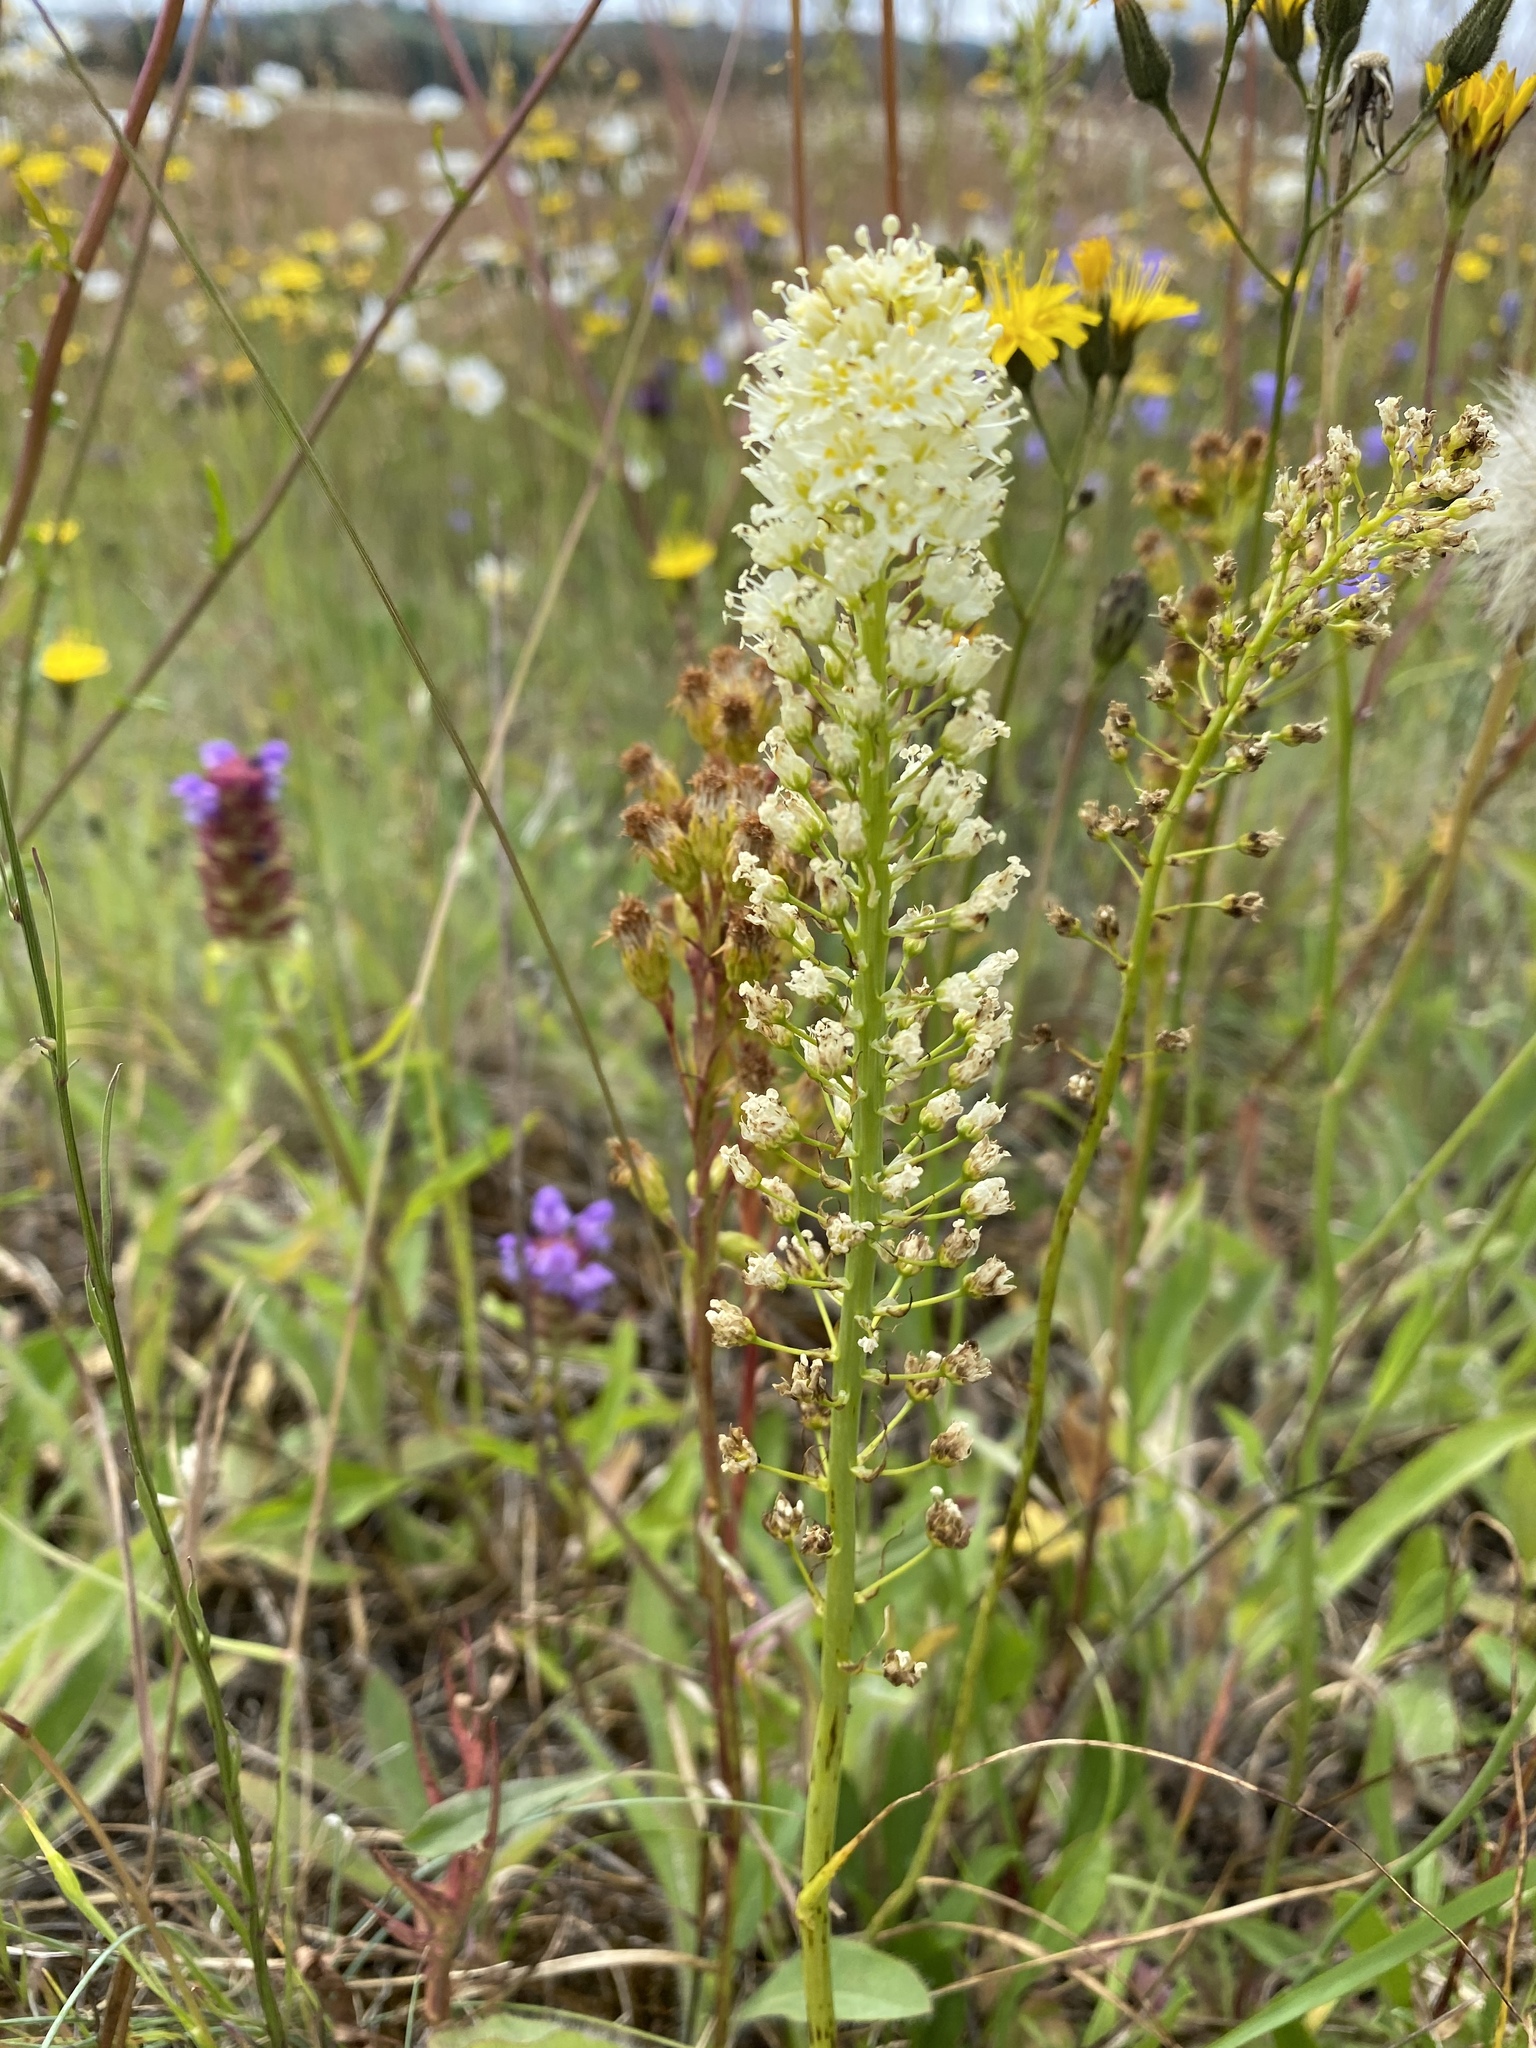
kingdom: Plantae
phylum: Tracheophyta
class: Liliopsida
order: Liliales
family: Melanthiaceae
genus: Toxicoscordion
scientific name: Toxicoscordion venenosum
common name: Meadow death camas
